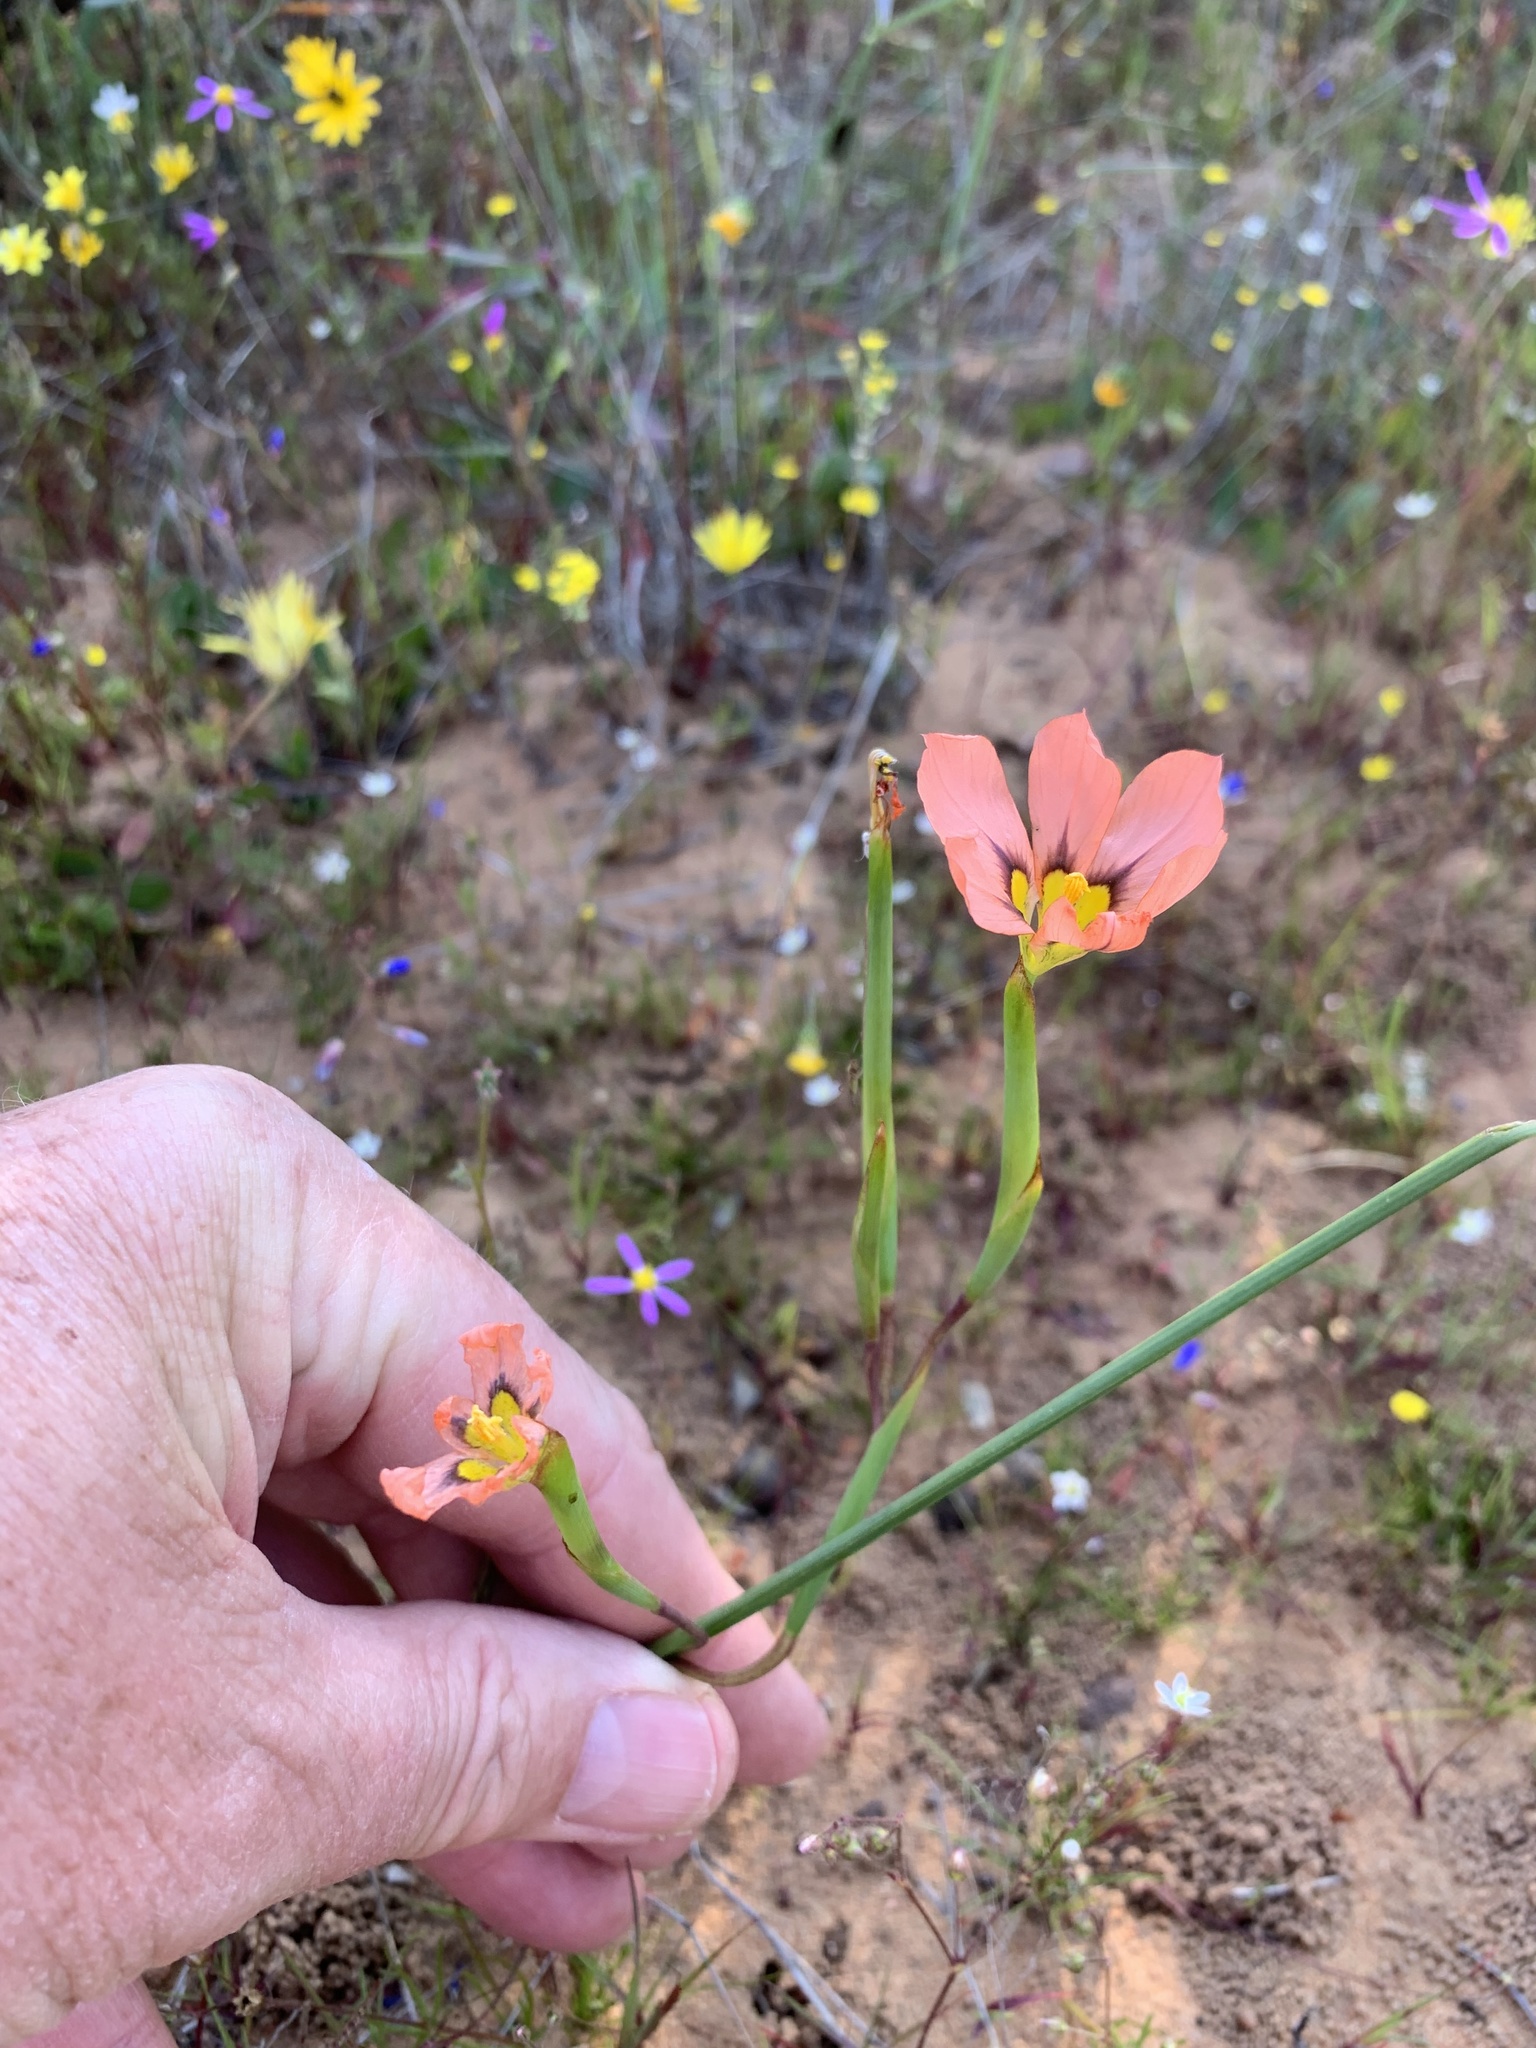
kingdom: Plantae
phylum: Tracheophyta
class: Liliopsida
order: Asparagales
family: Iridaceae
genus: Moraea
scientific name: Moraea vallisbelli
